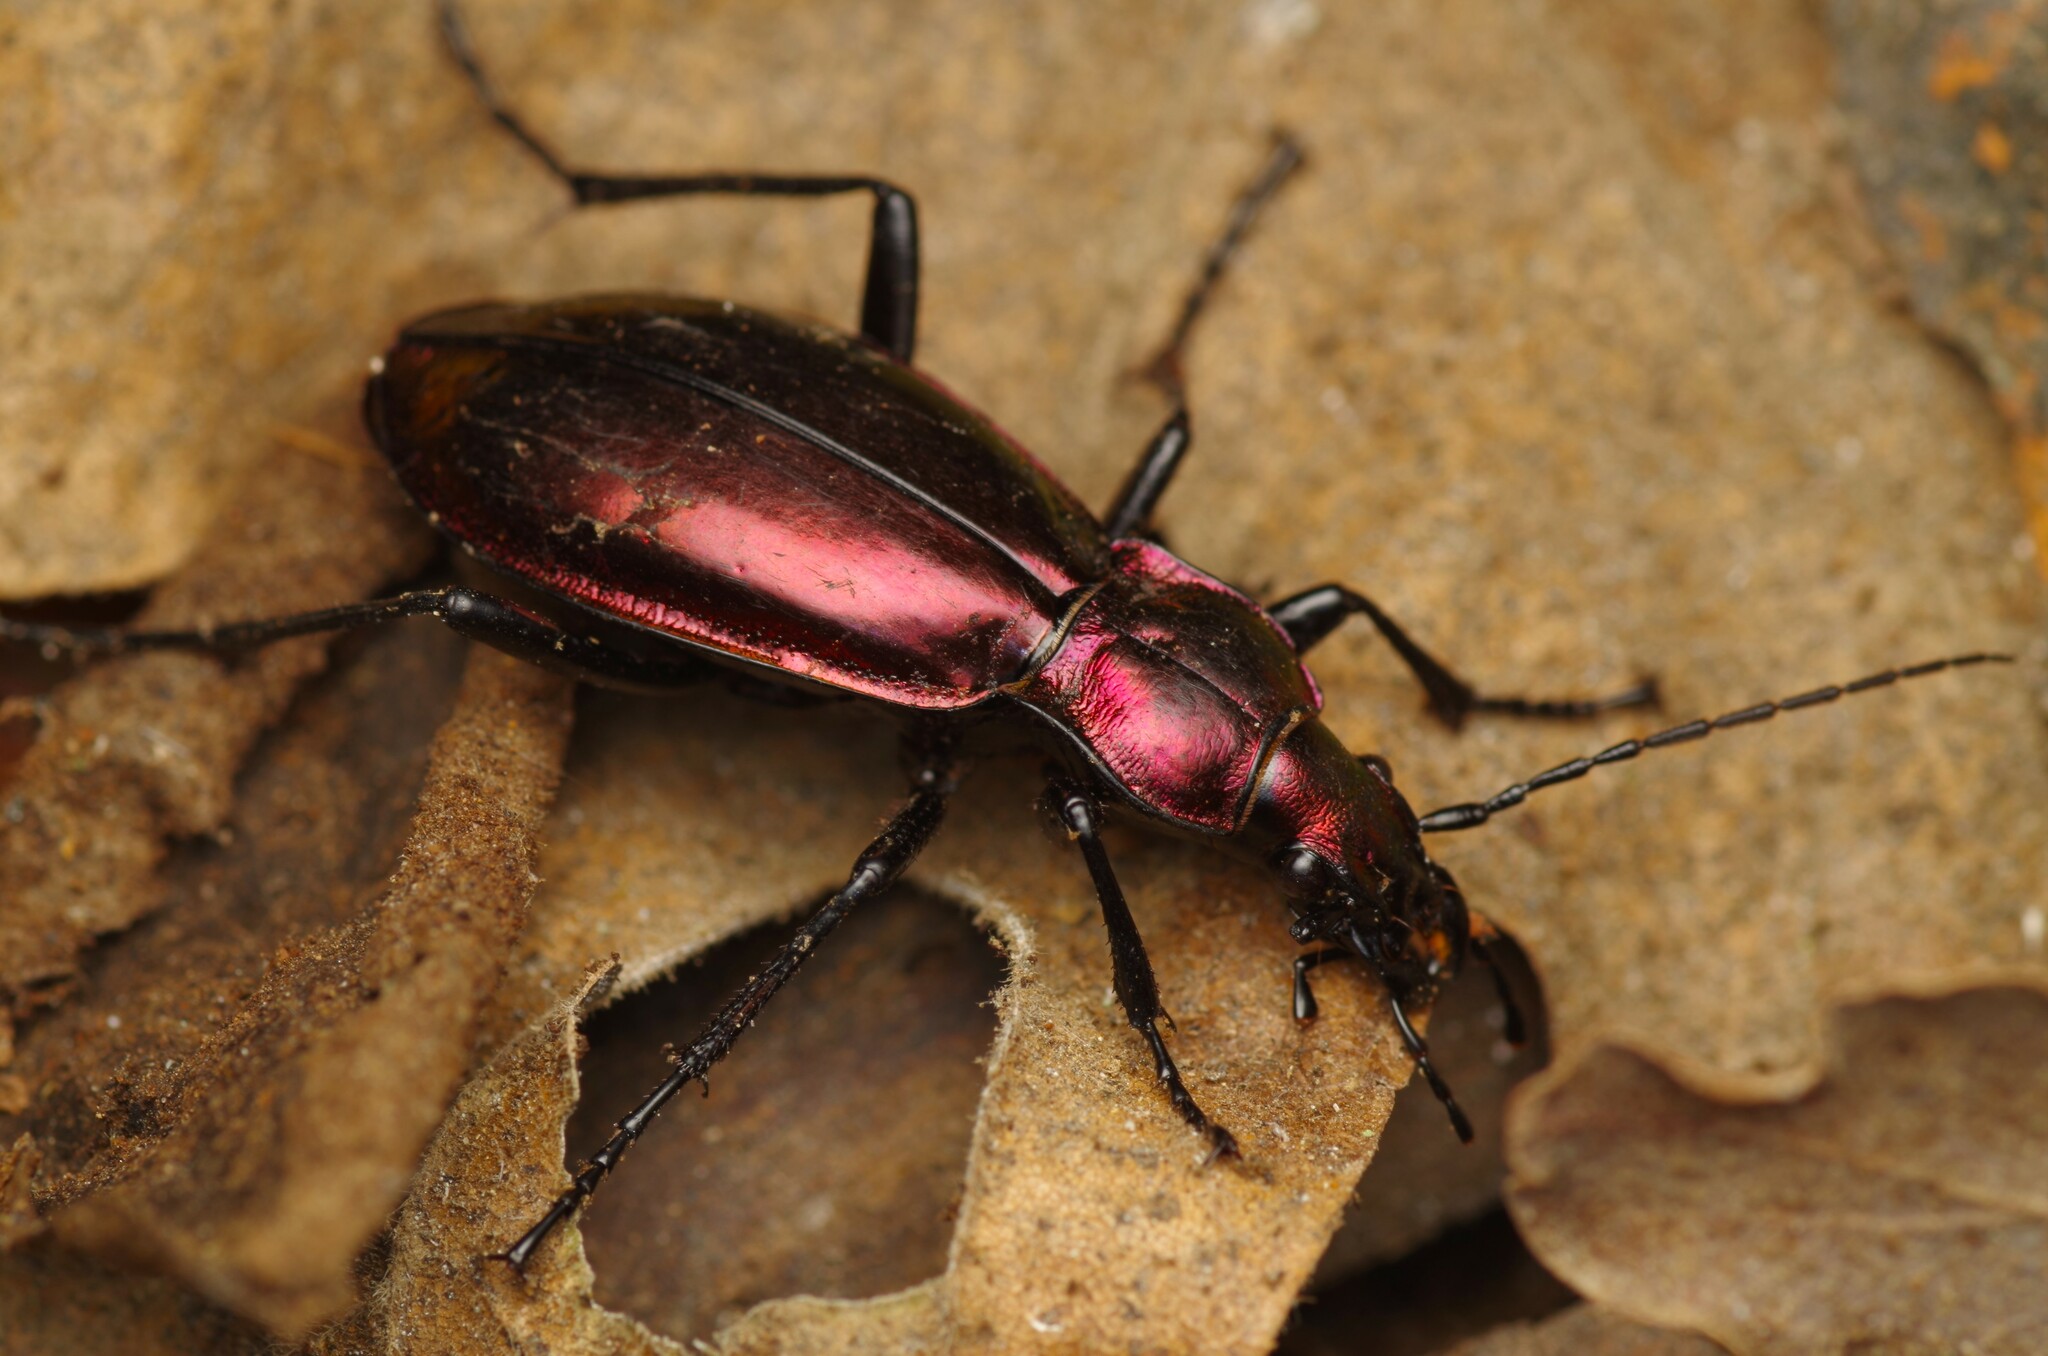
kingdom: Animalia
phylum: Arthropoda
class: Insecta
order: Coleoptera
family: Carabidae
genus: Carabus
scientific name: Carabus splendens
